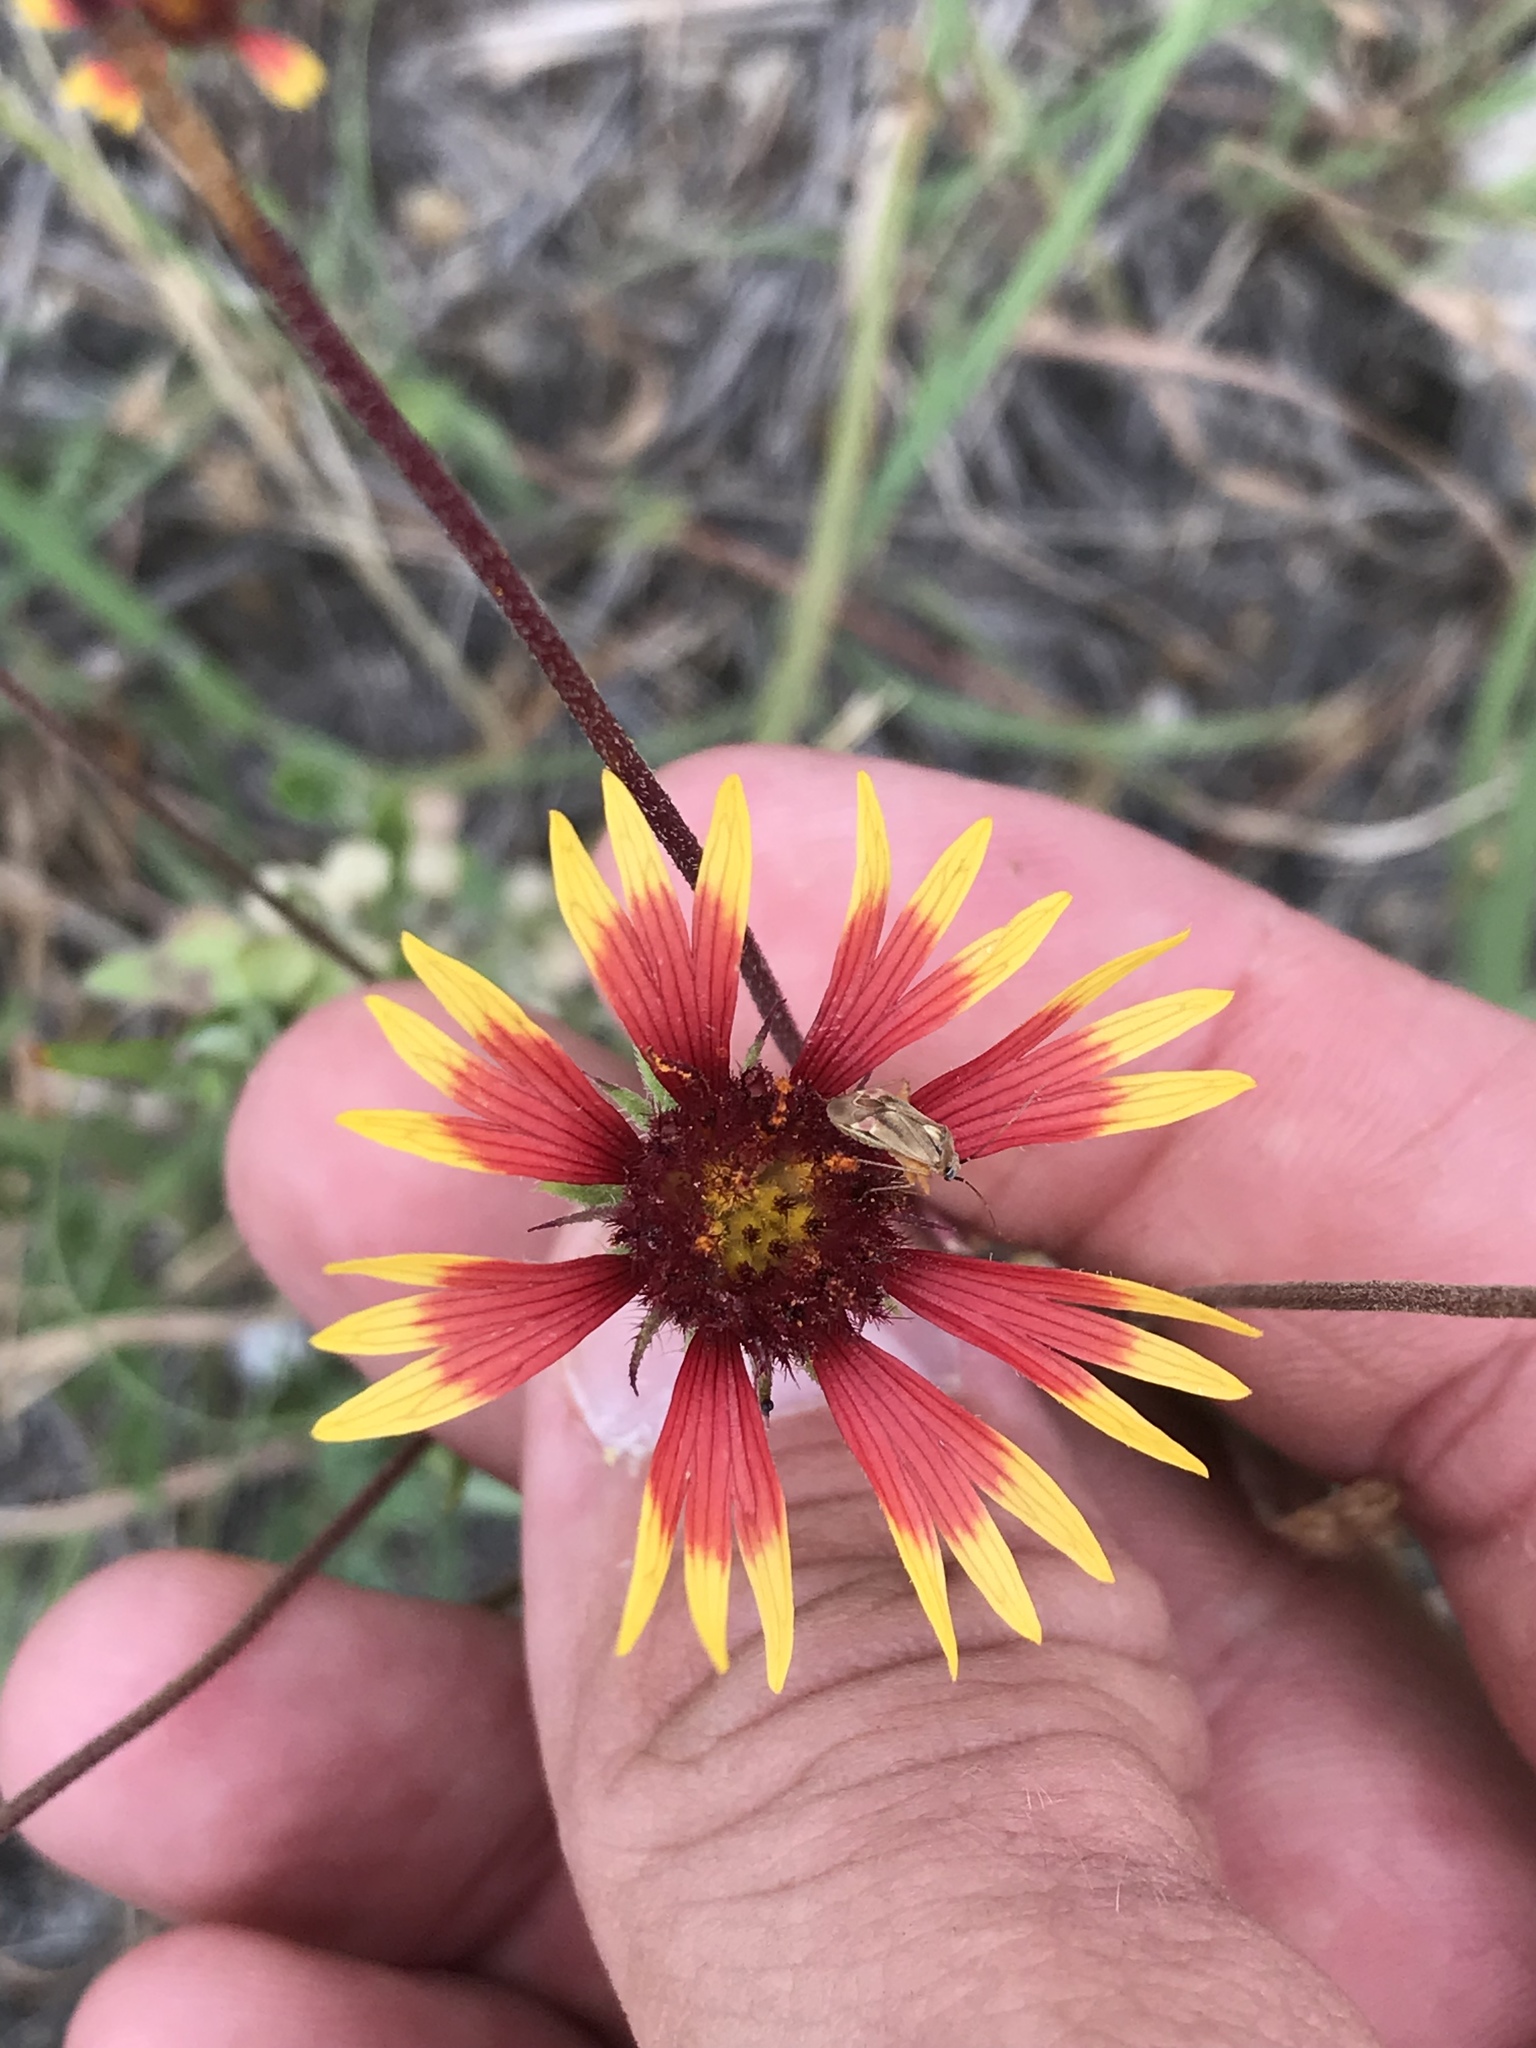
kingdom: Plantae
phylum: Tracheophyta
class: Magnoliopsida
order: Asterales
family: Asteraceae
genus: Gaillardia
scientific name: Gaillardia pulchella
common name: Firewheel
